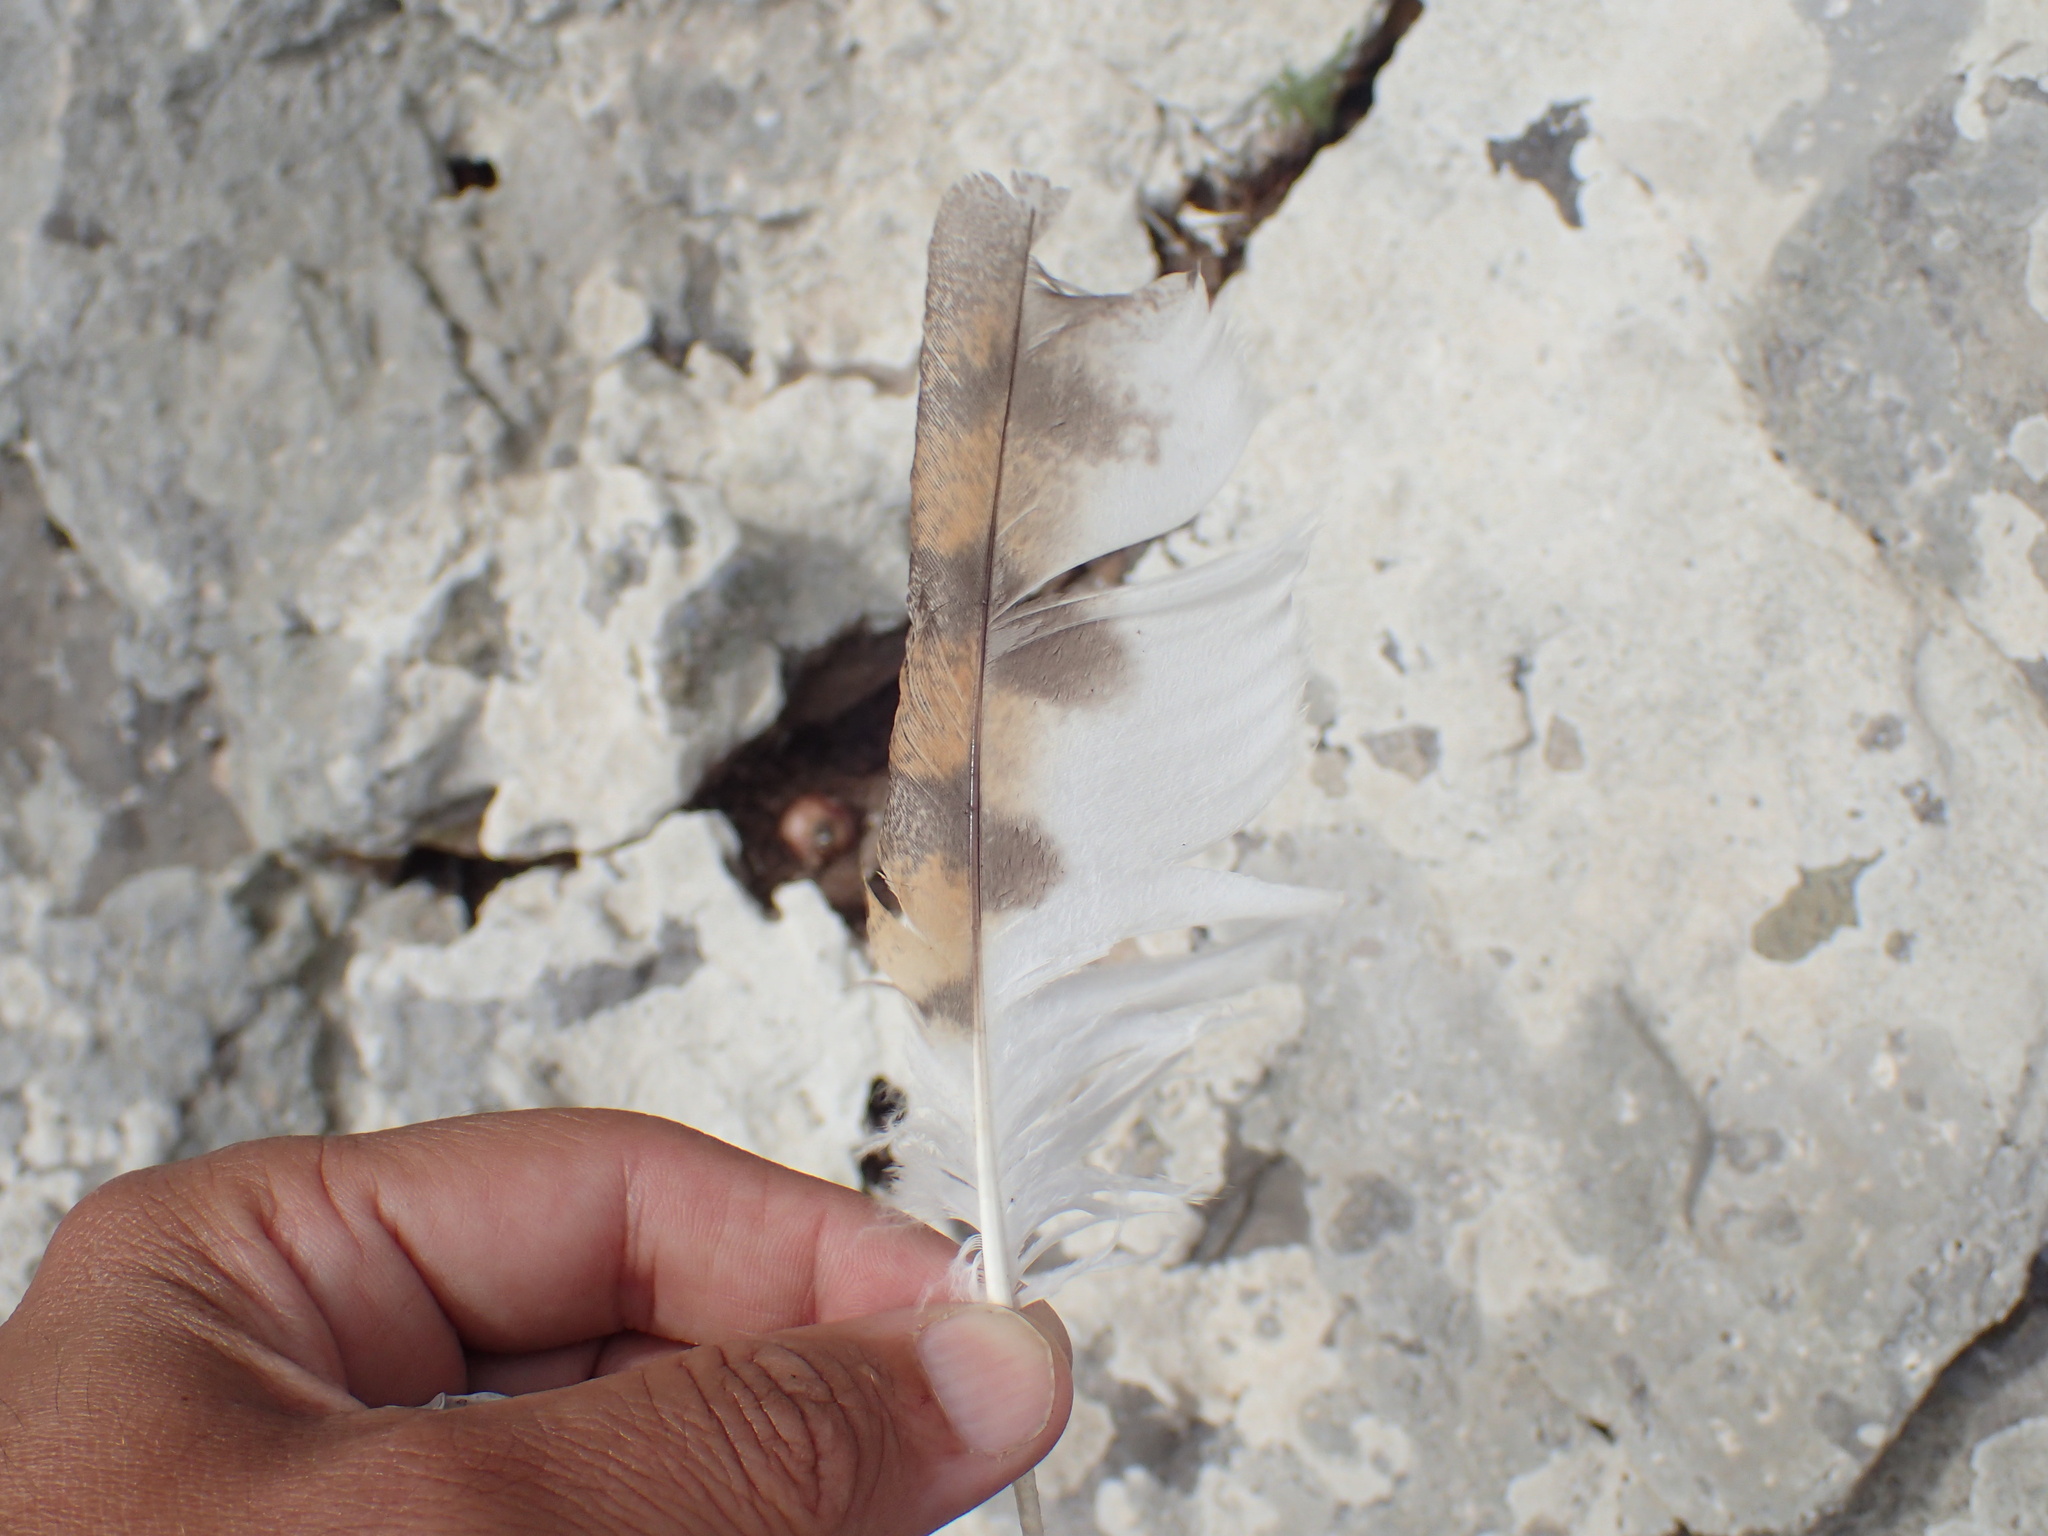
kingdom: Animalia
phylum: Chordata
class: Aves
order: Strigiformes
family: Tytonidae
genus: Tyto
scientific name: Tyto alba
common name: Barn owl
